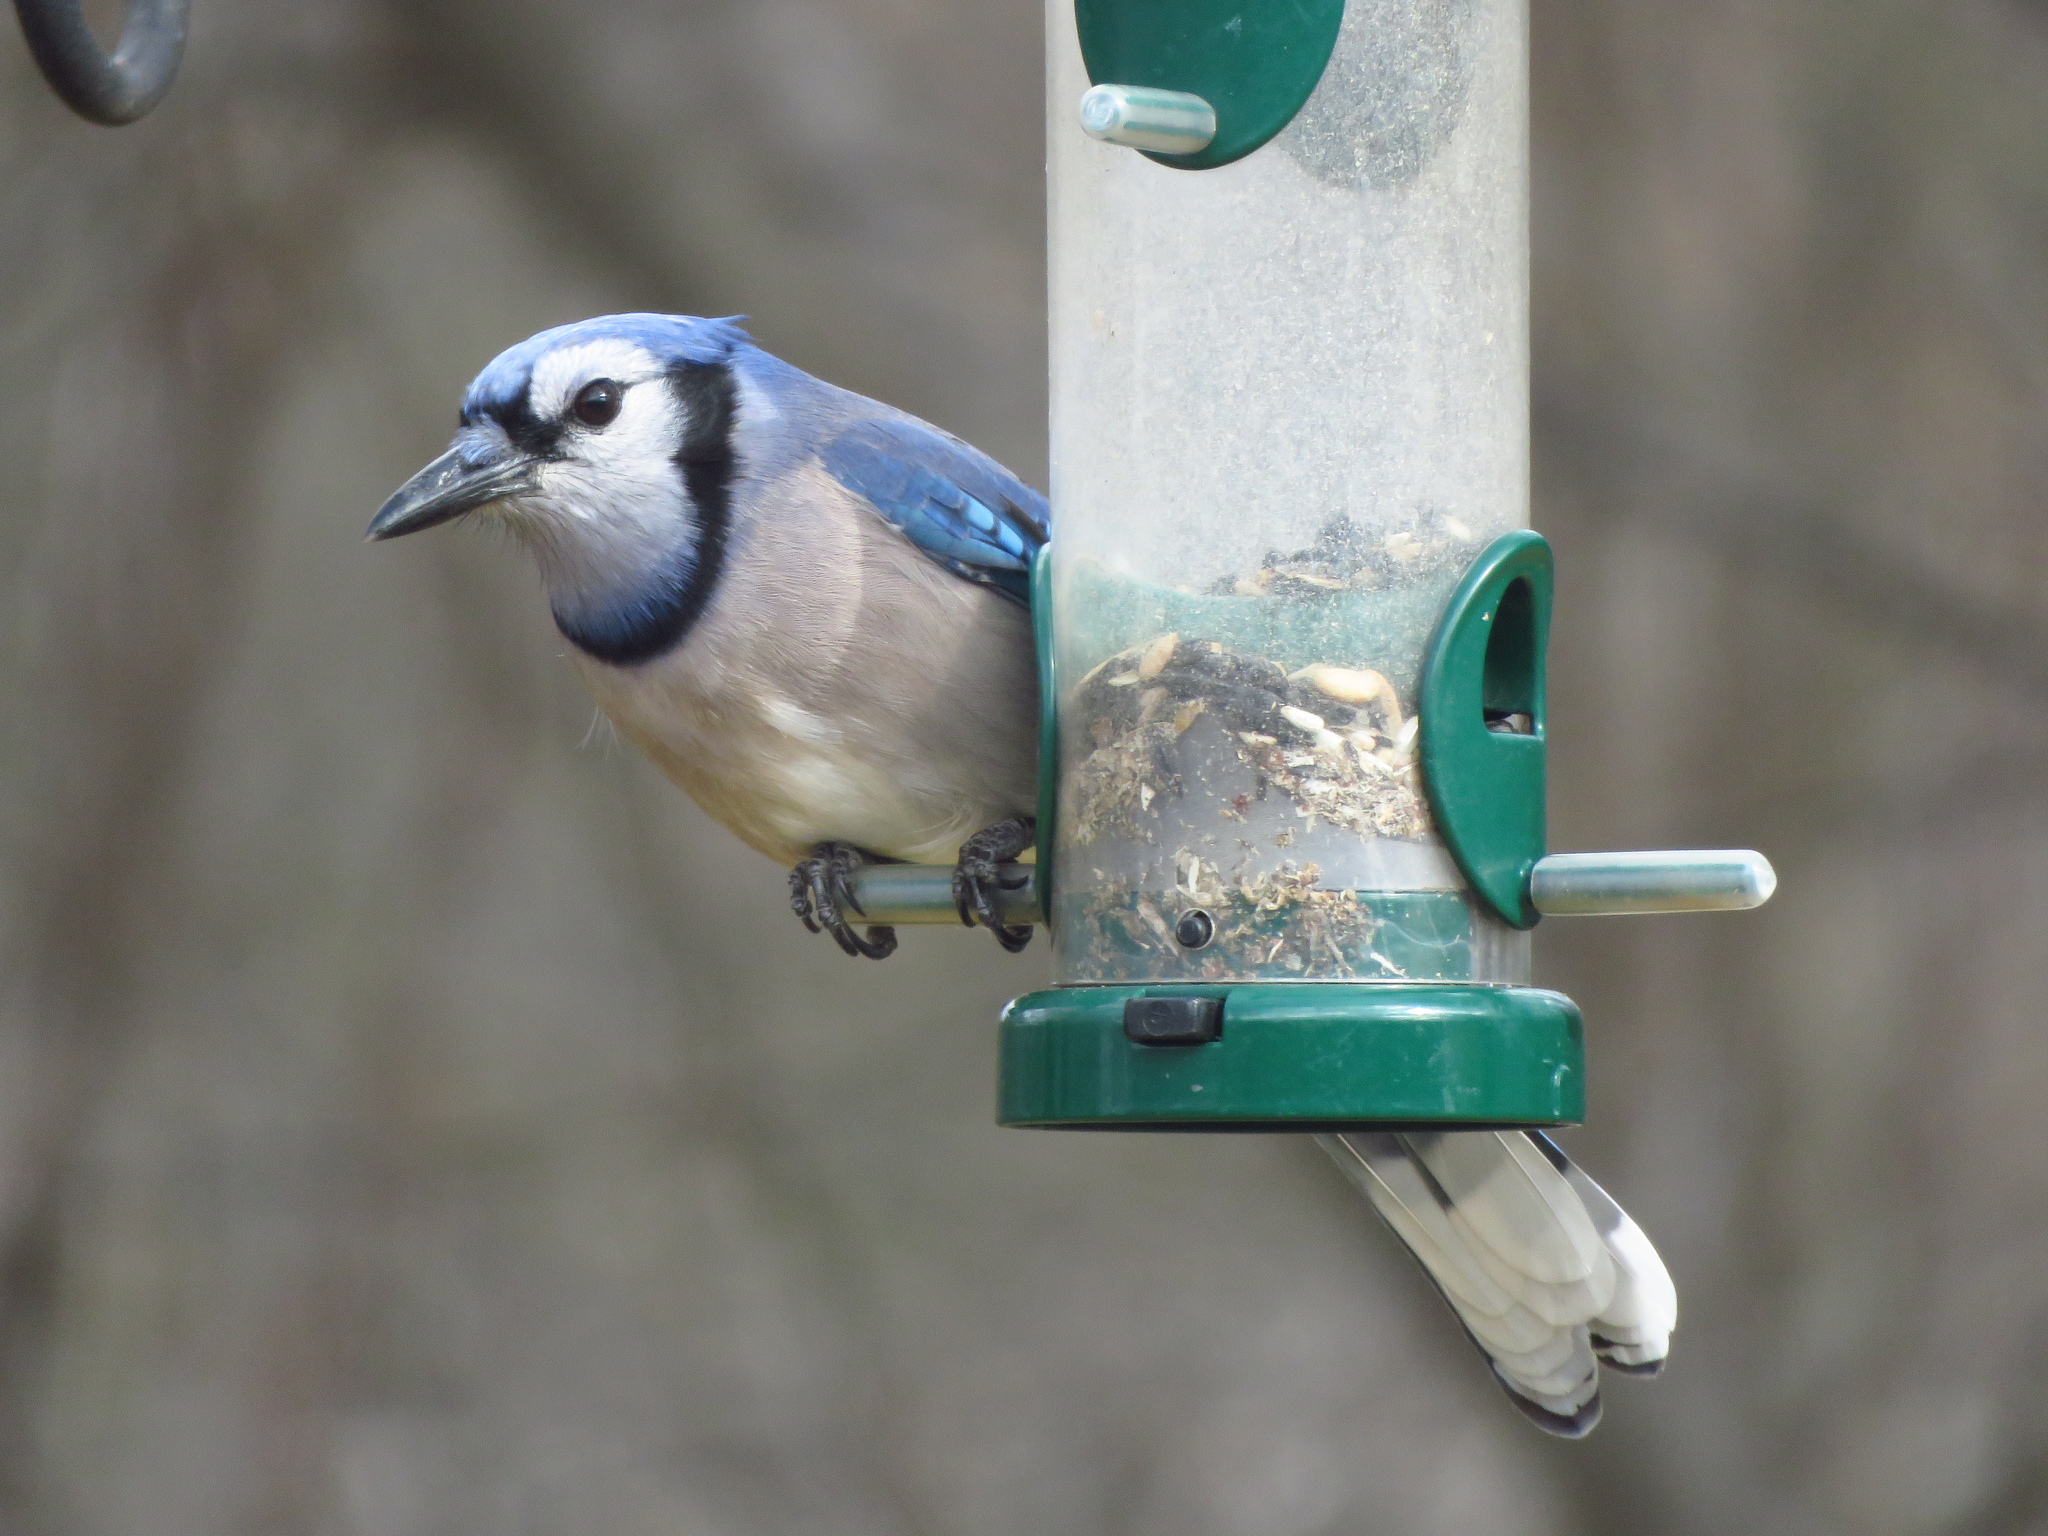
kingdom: Animalia
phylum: Chordata
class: Aves
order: Passeriformes
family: Corvidae
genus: Cyanocitta
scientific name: Cyanocitta cristata
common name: Blue jay
